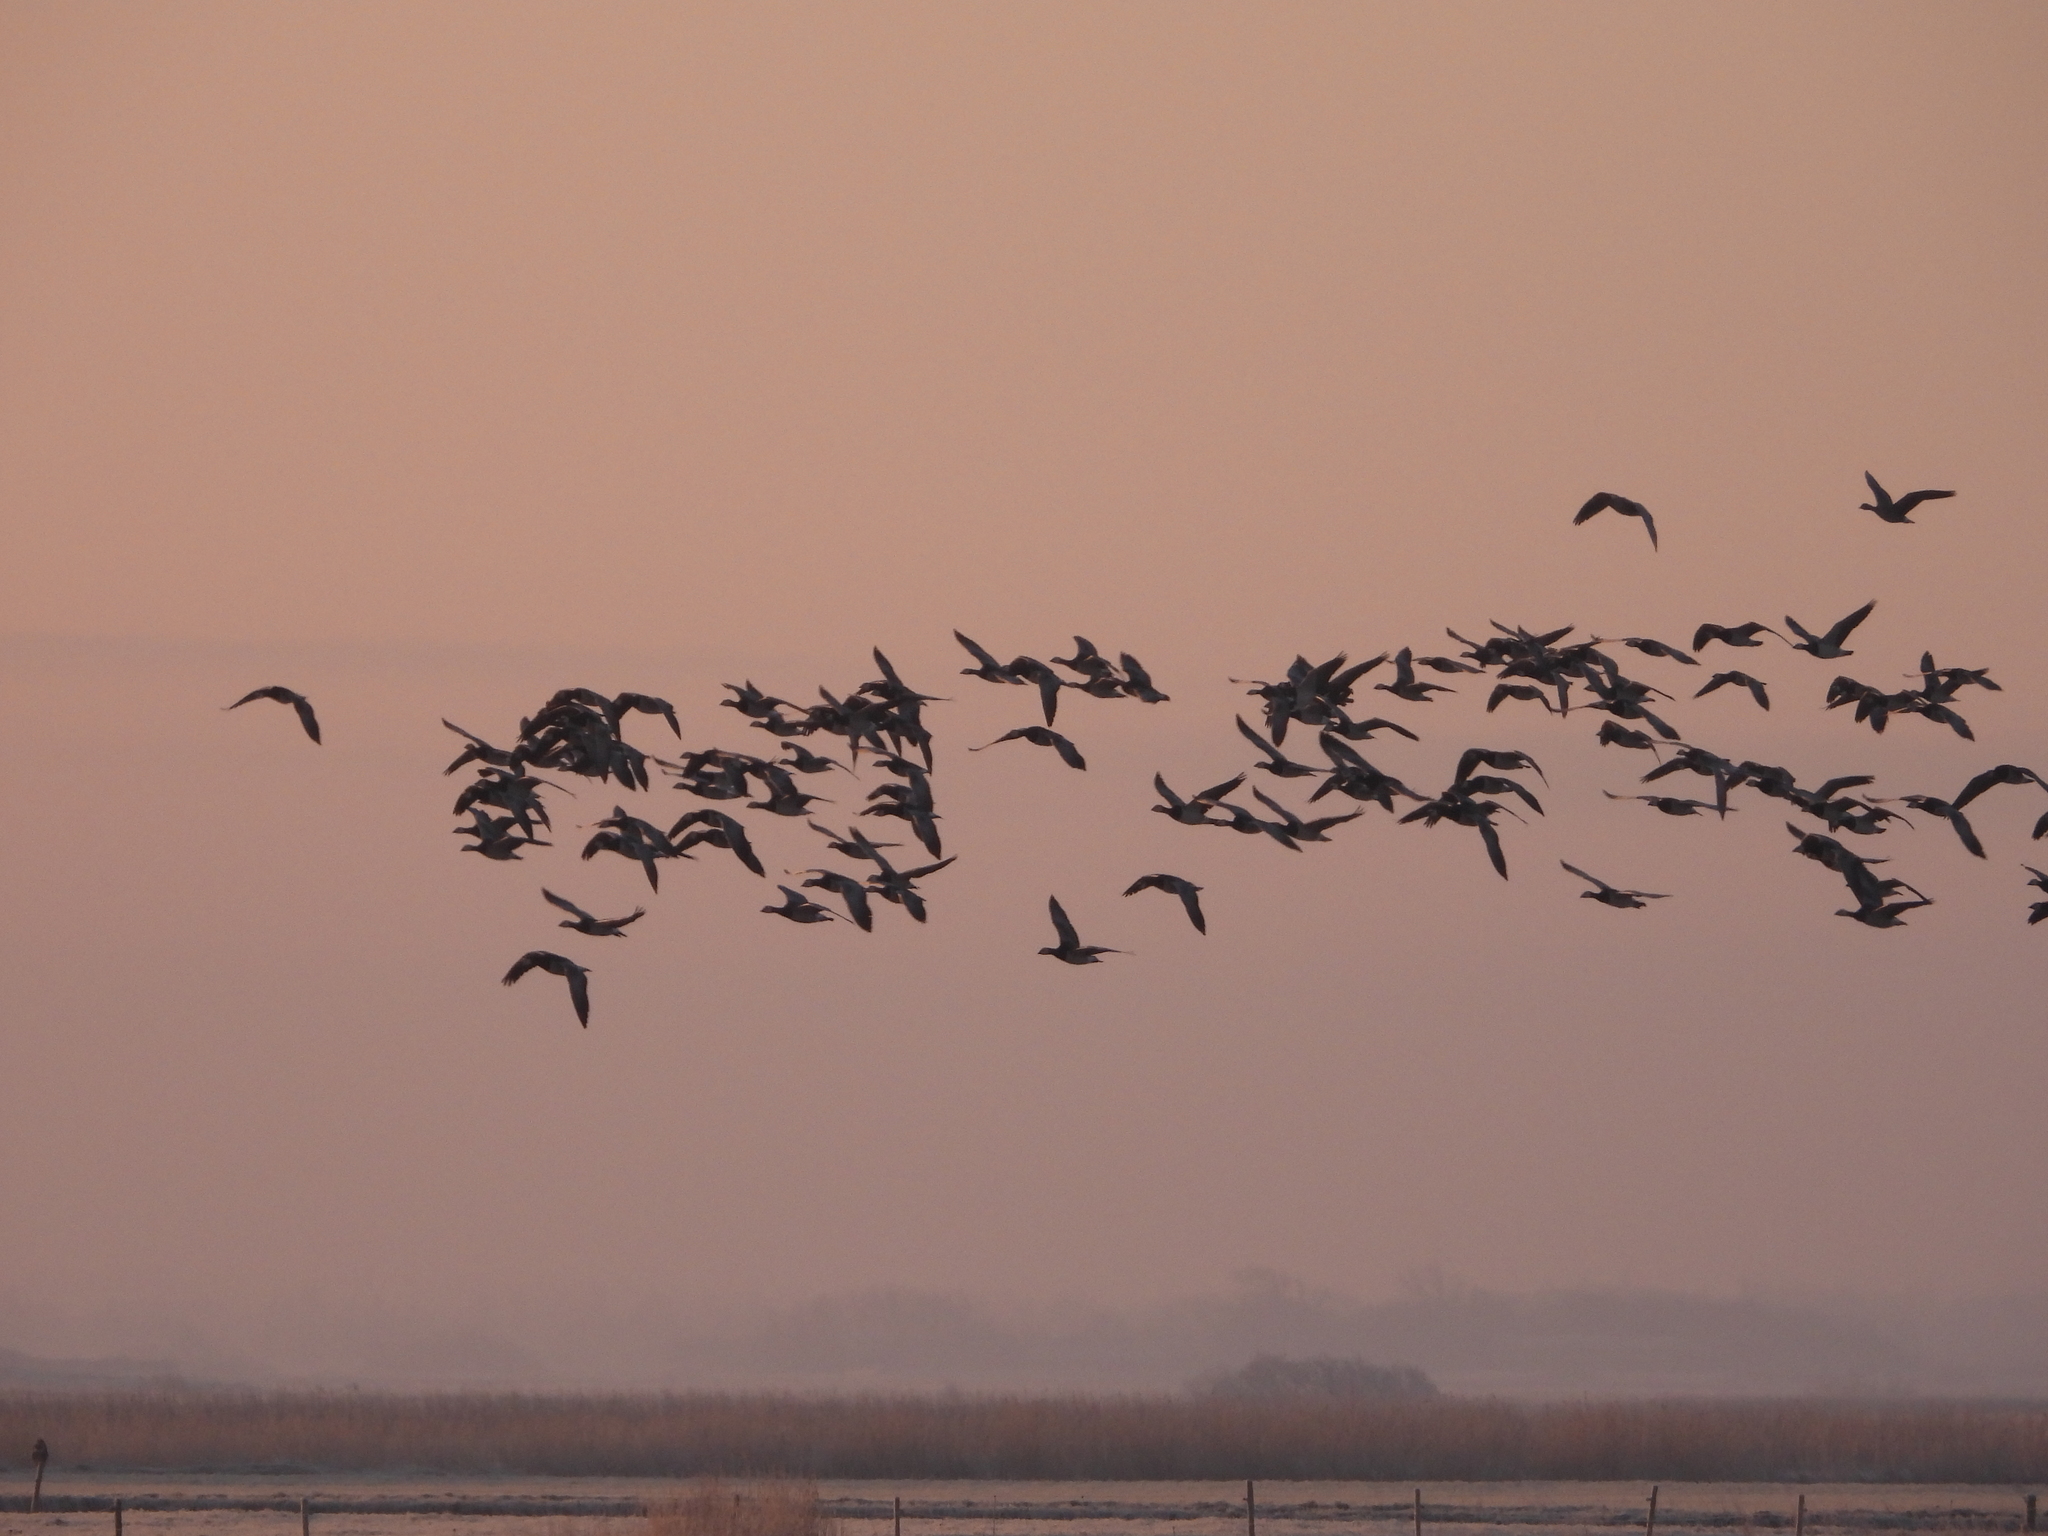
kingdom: Animalia
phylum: Chordata
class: Aves
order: Anseriformes
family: Anatidae
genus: Branta
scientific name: Branta leucopsis
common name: Barnacle goose
